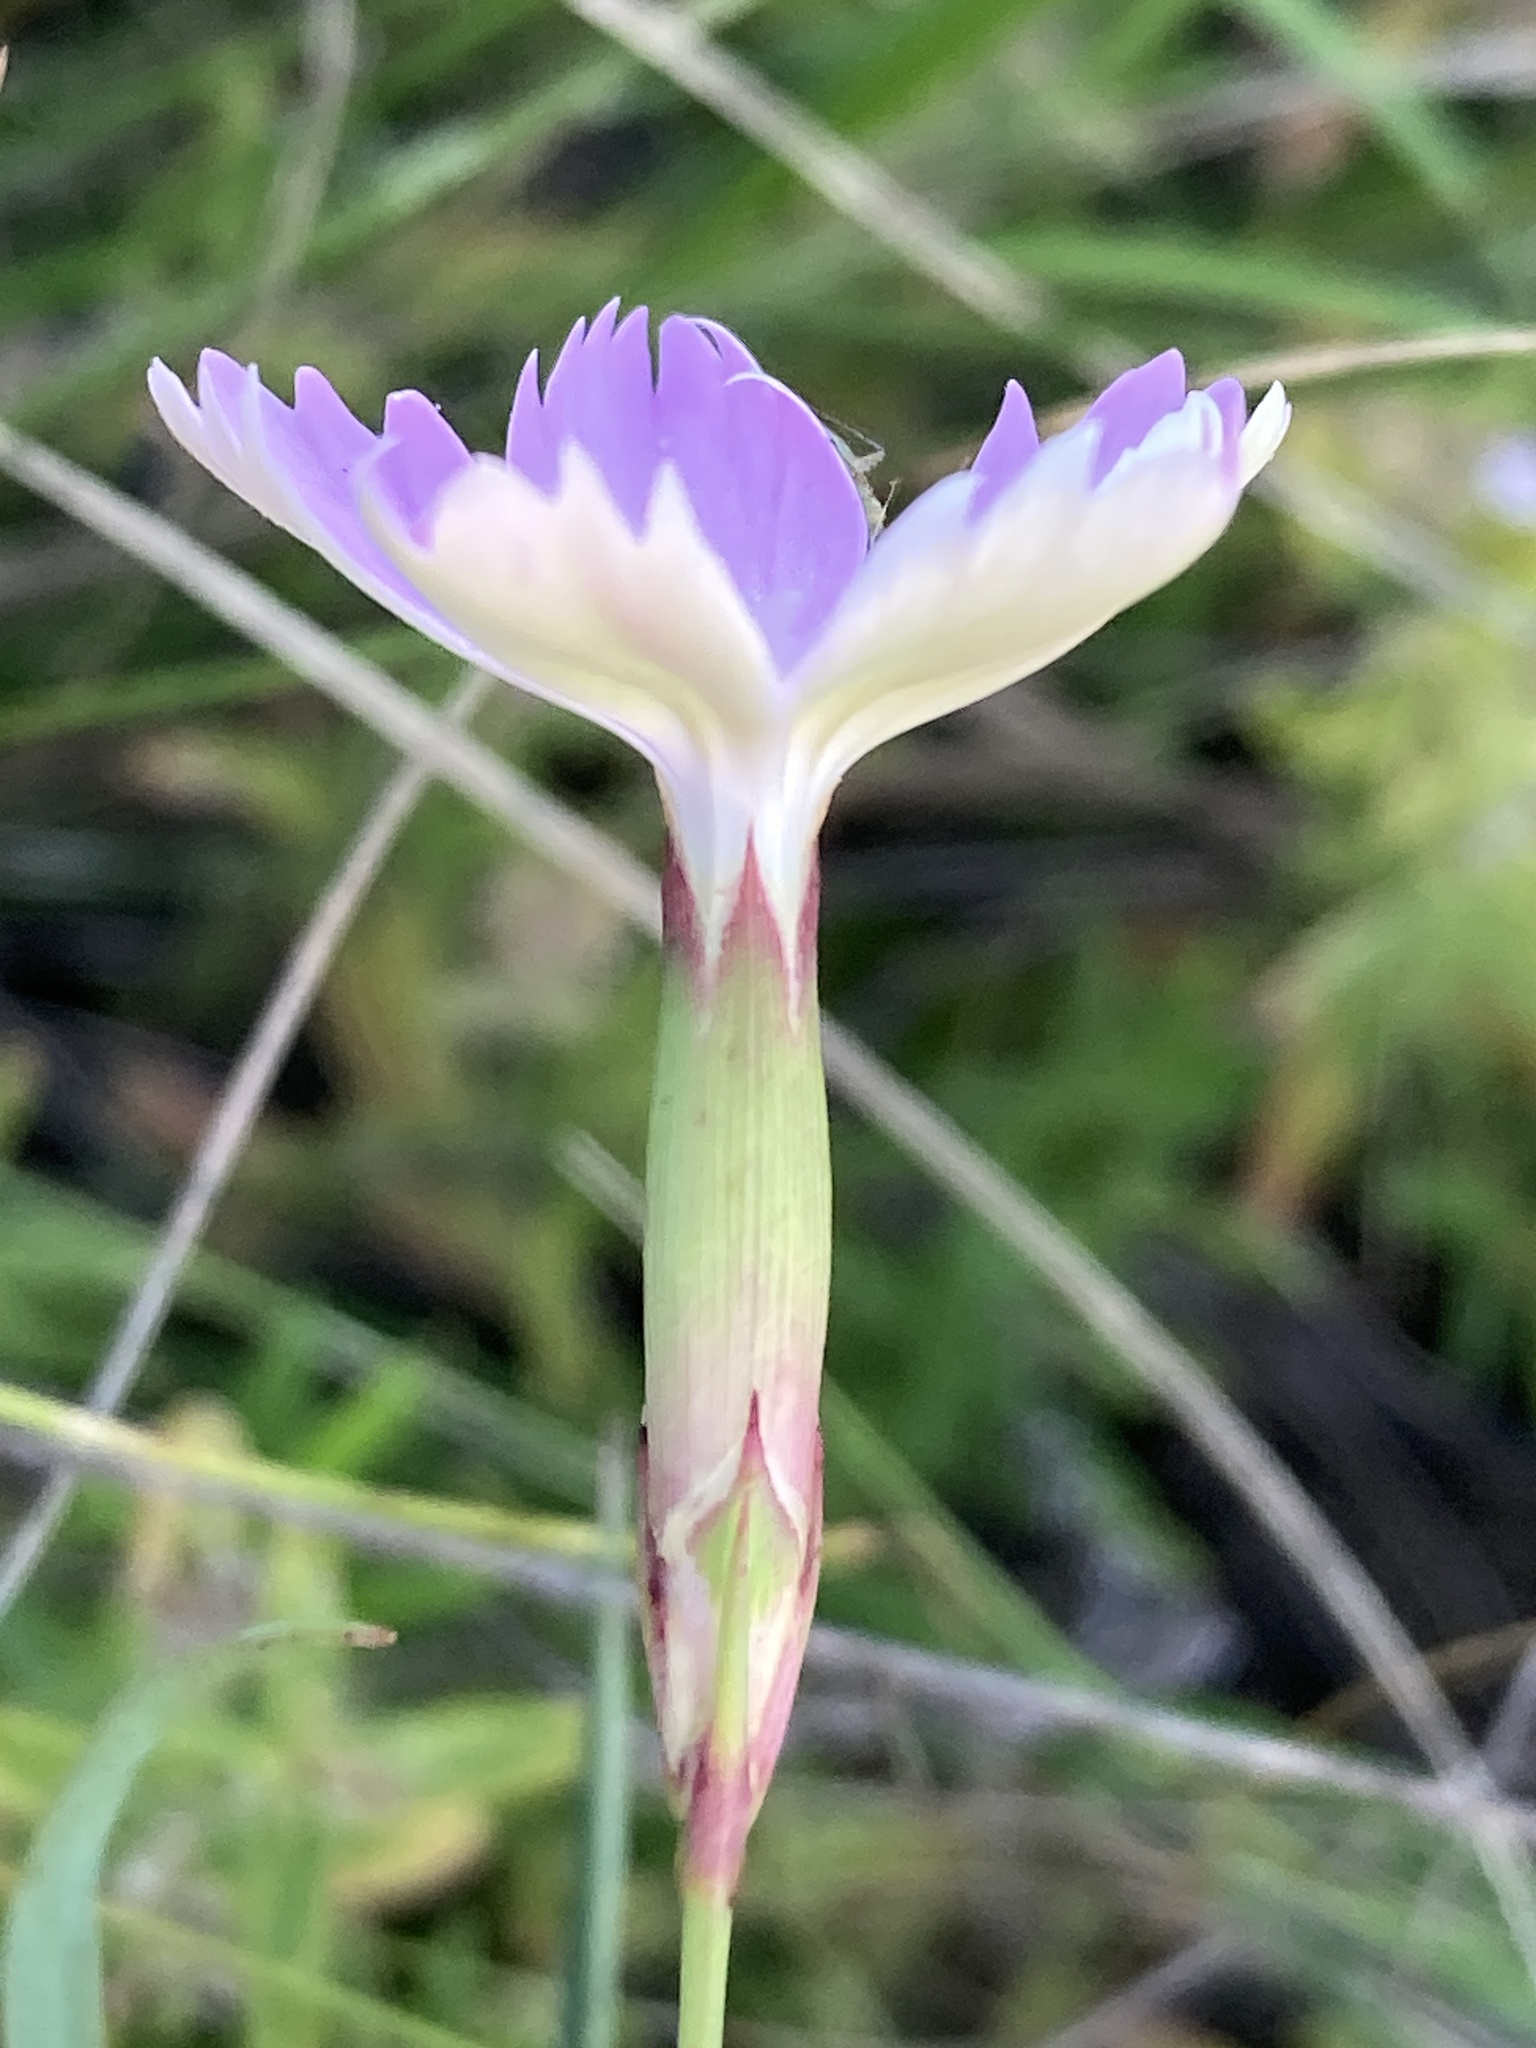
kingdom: Plantae
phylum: Tracheophyta
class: Magnoliopsida
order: Caryophyllales
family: Caryophyllaceae
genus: Dianthus
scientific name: Dianthus campestris
